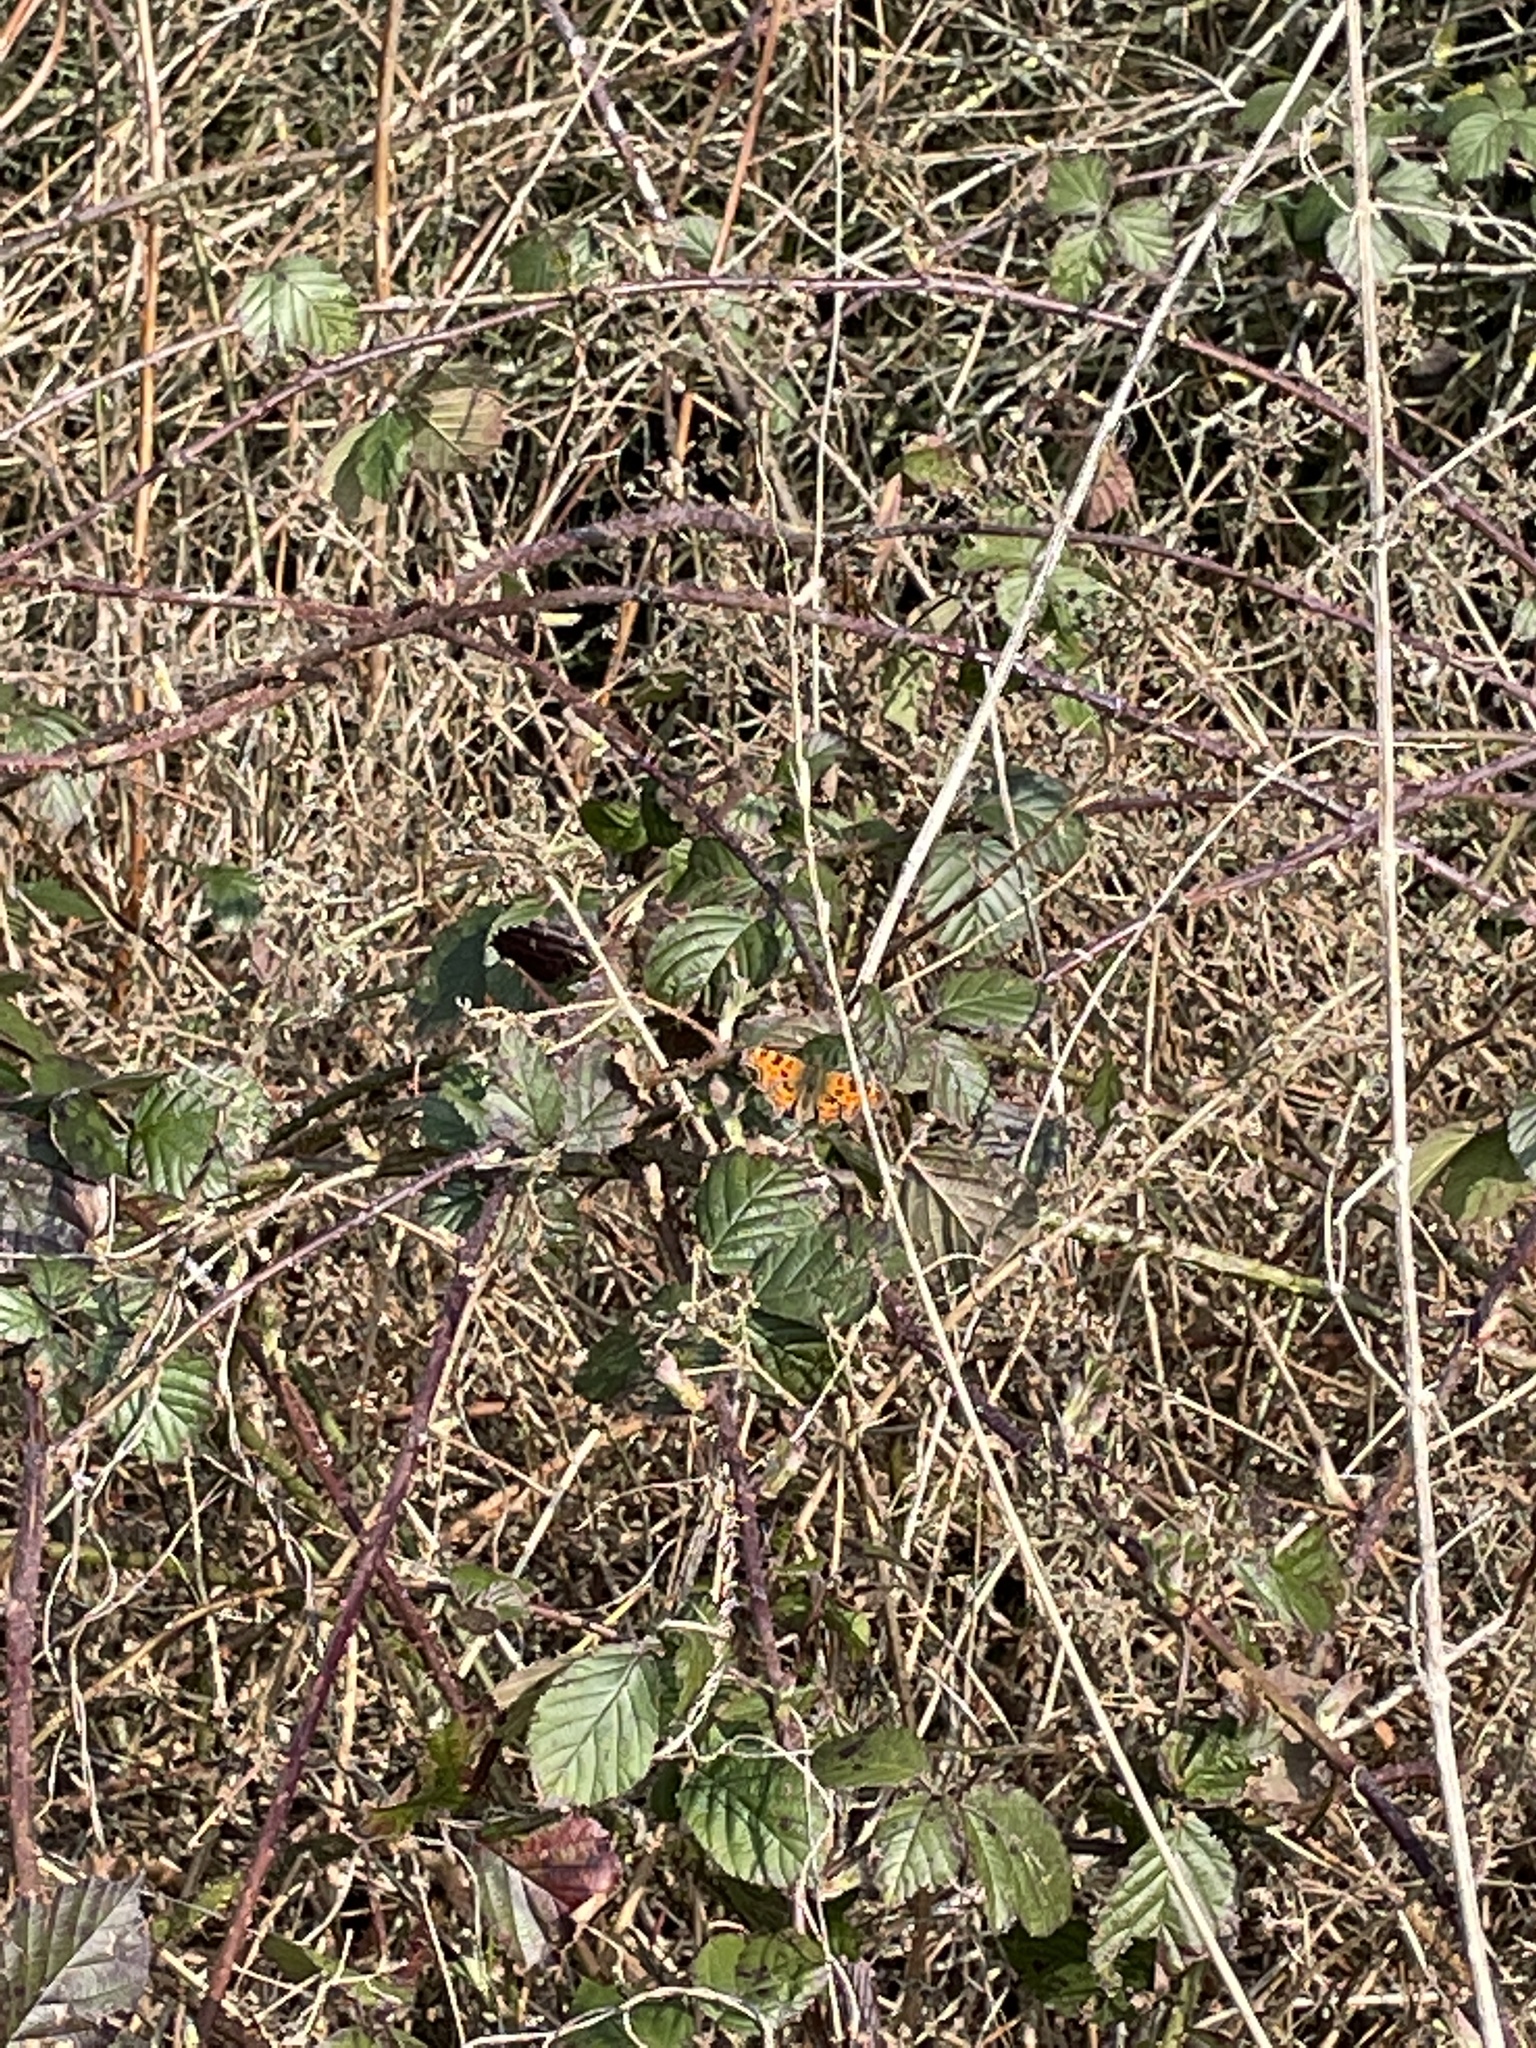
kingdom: Animalia
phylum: Arthropoda
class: Insecta
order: Lepidoptera
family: Nymphalidae
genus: Polygonia
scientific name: Polygonia c-album
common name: Comma
